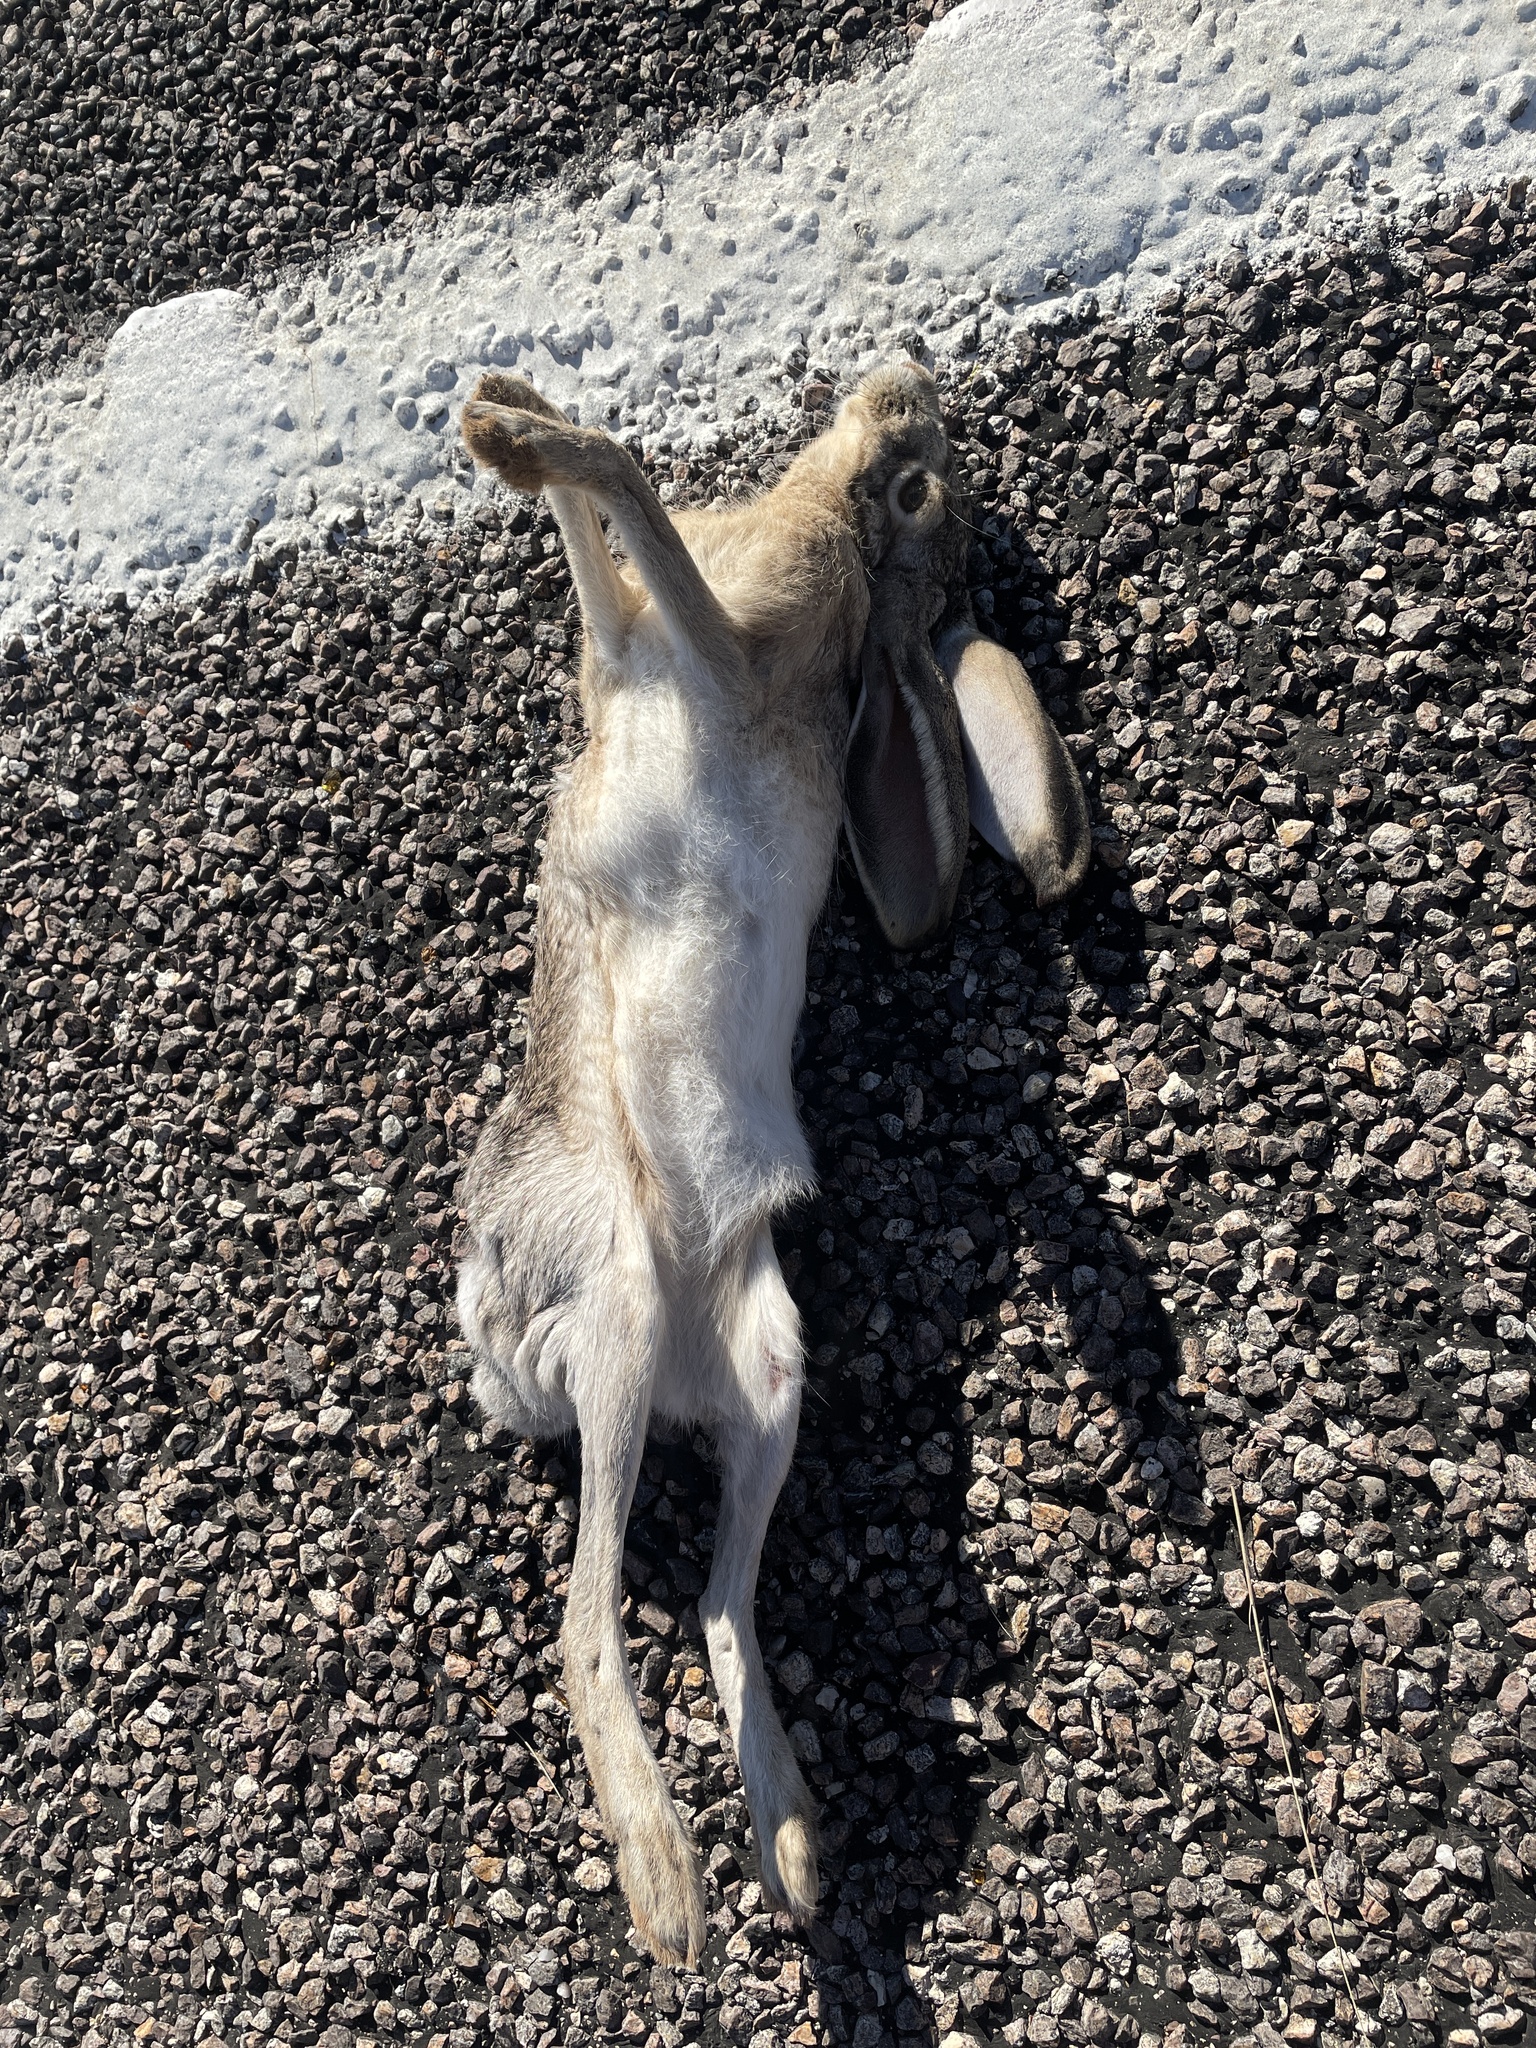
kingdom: Animalia
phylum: Chordata
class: Mammalia
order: Lagomorpha
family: Leporidae
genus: Lepus
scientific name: Lepus californicus
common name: Black-tailed jackrabbit
